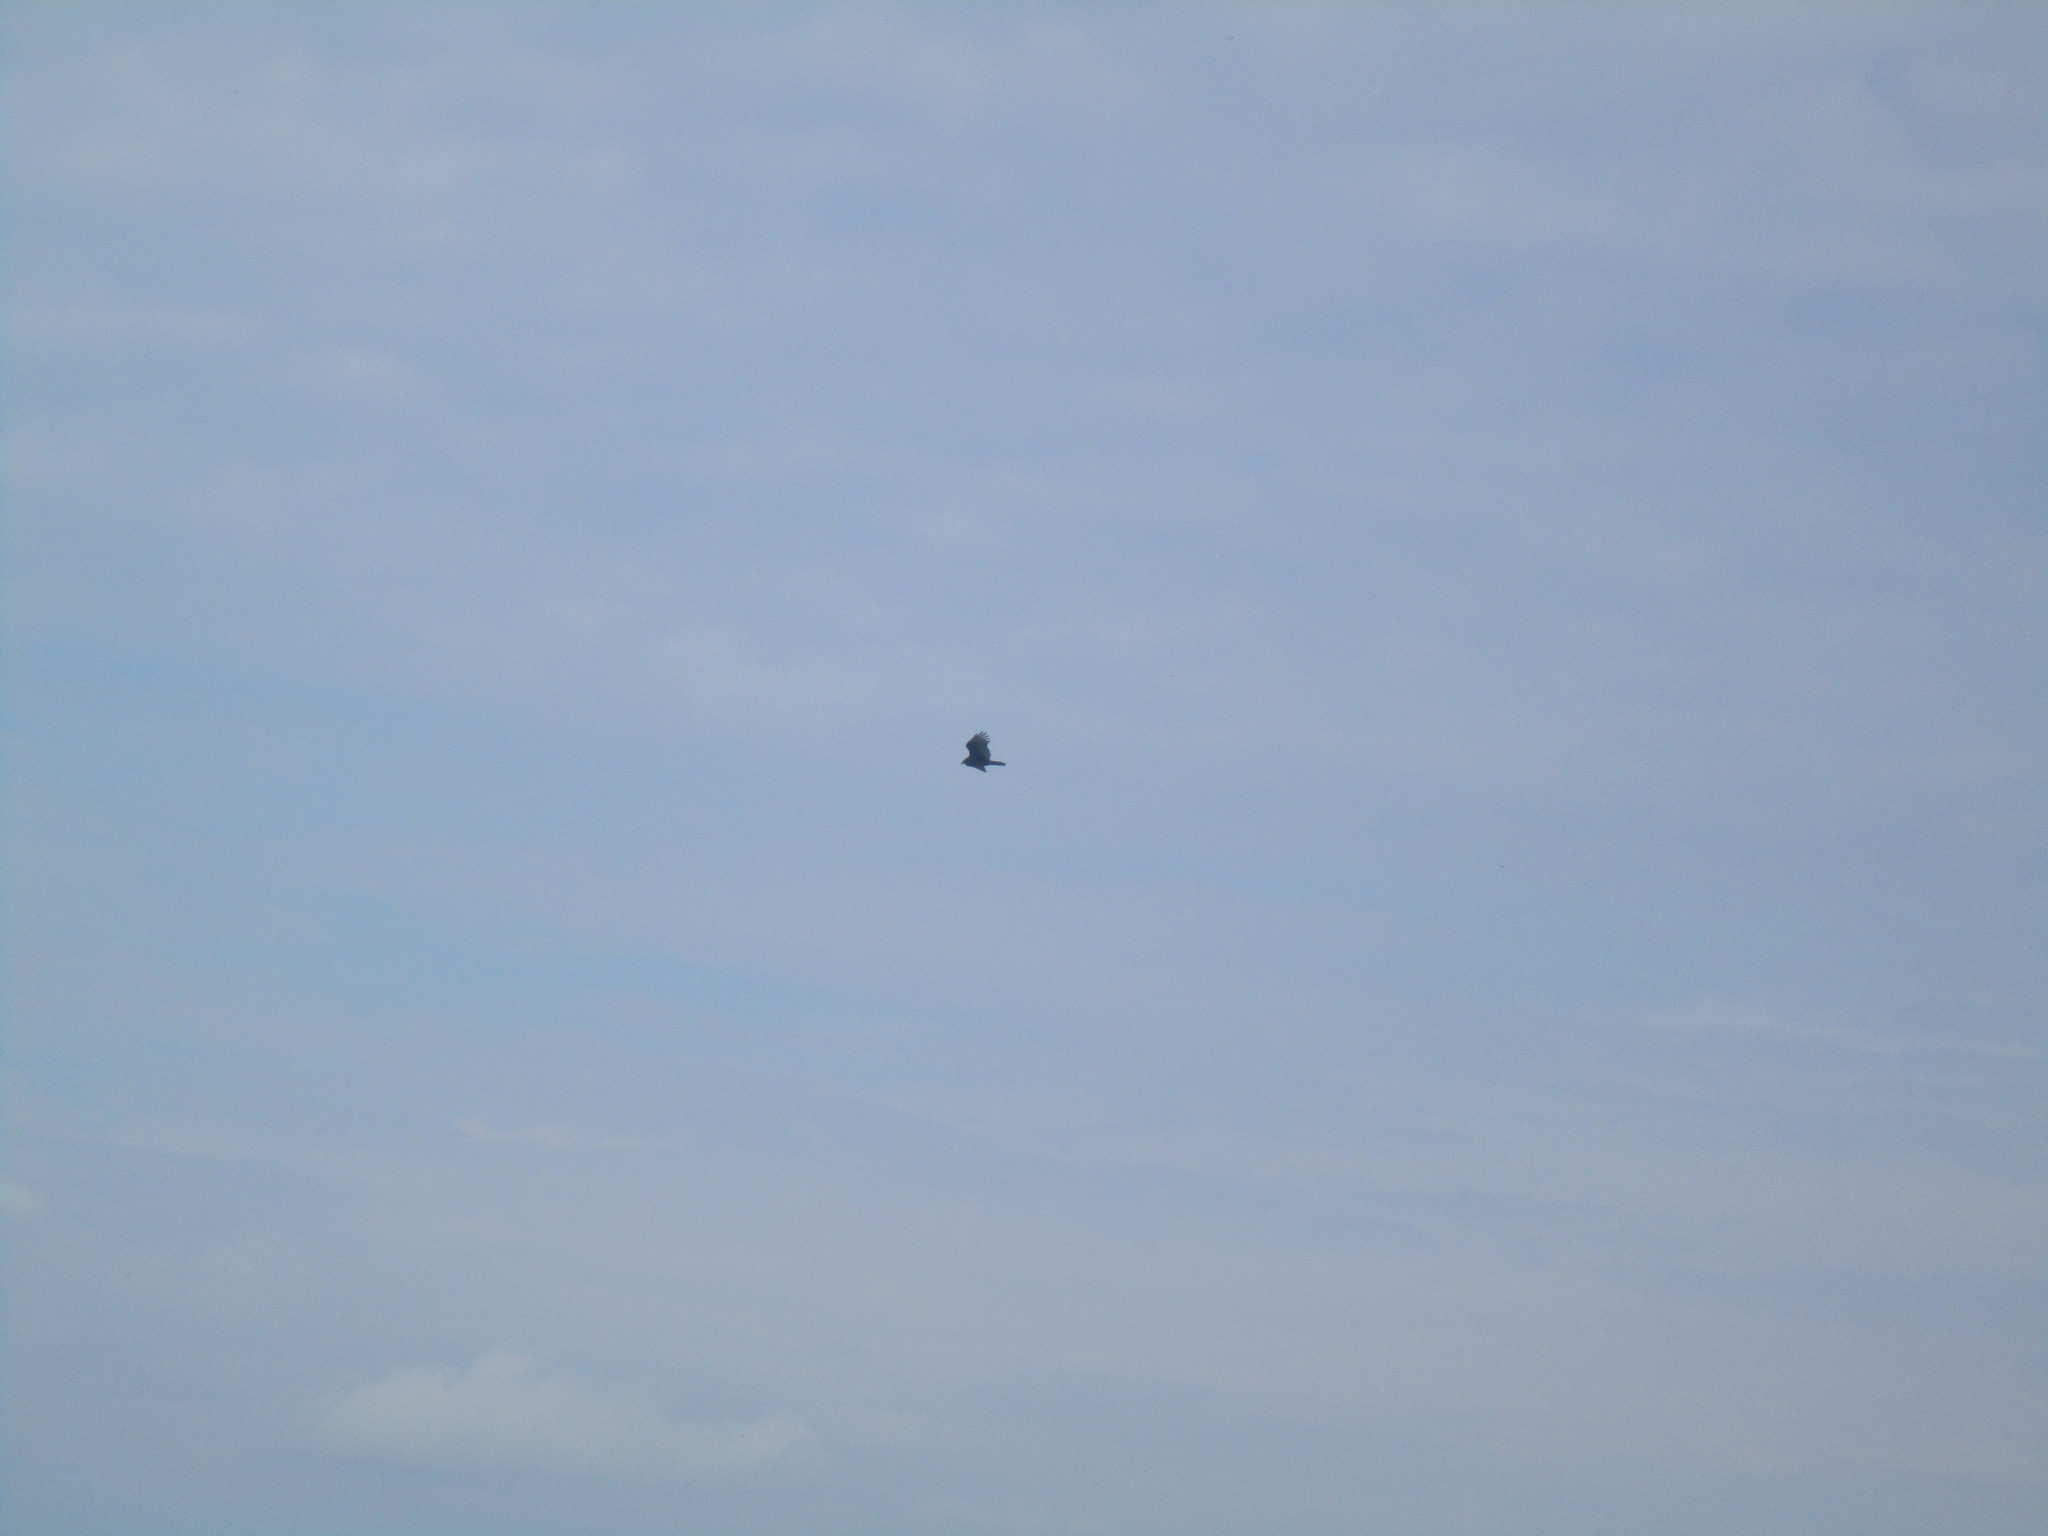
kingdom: Animalia
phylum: Chordata
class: Aves
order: Accipitriformes
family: Cathartidae
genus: Cathartes
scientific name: Cathartes aura
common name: Turkey vulture
